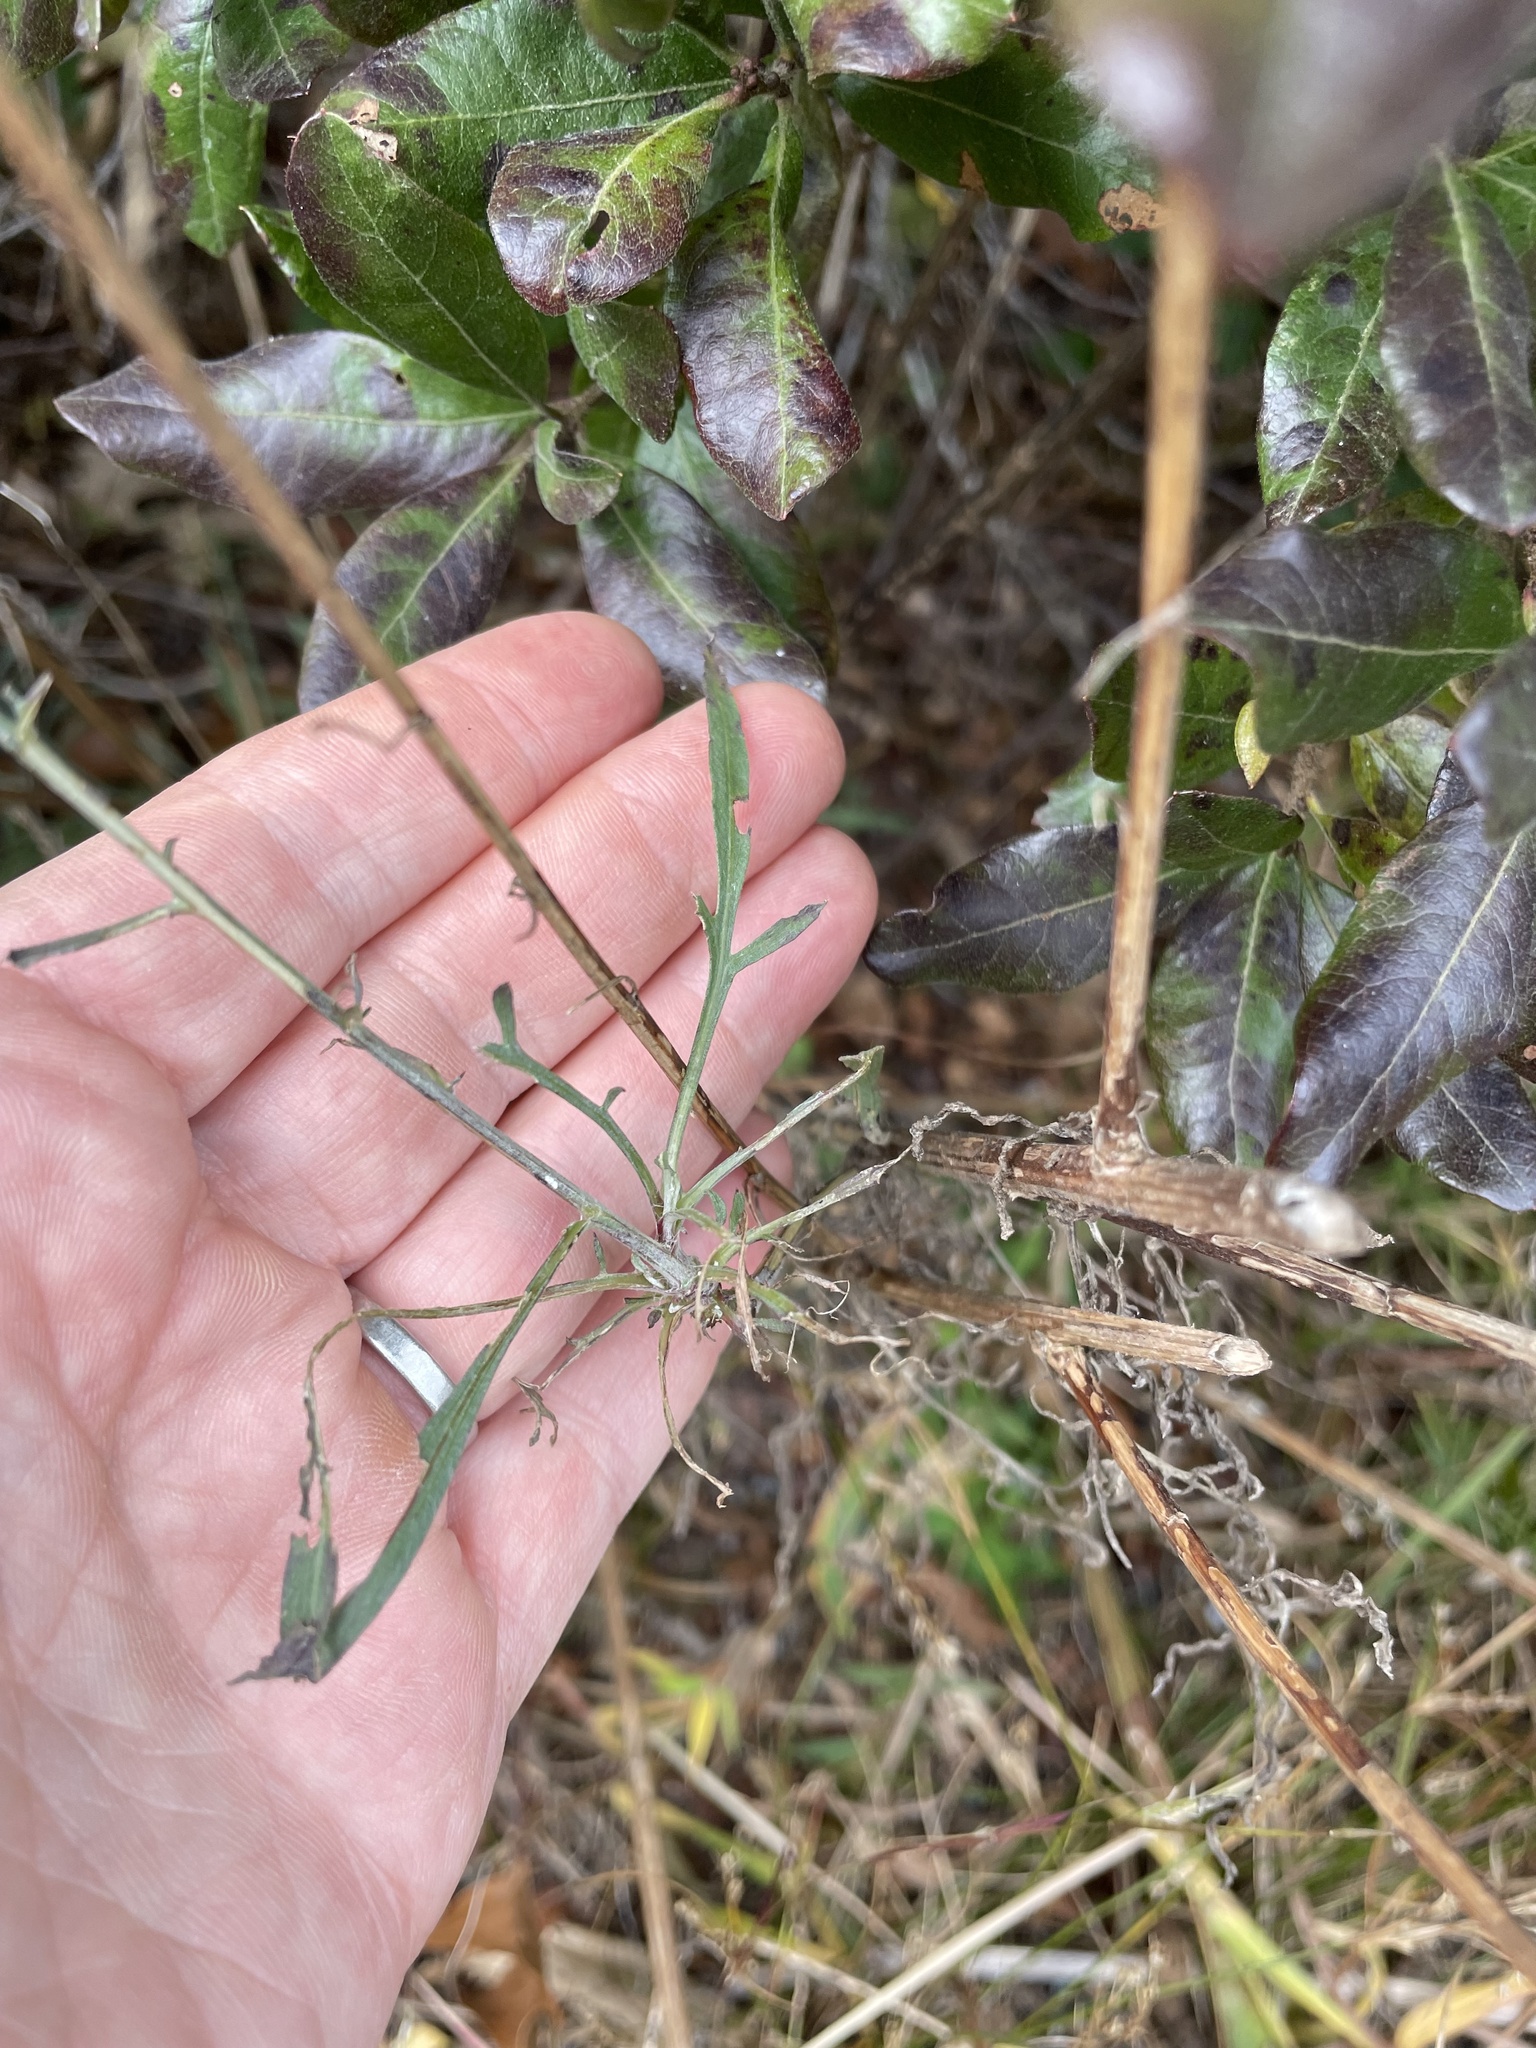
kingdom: Plantae
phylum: Tracheophyta
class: Magnoliopsida
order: Asterales
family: Asteraceae
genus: Centaurea
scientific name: Centaurea stoebe
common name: Spotted knapweed
